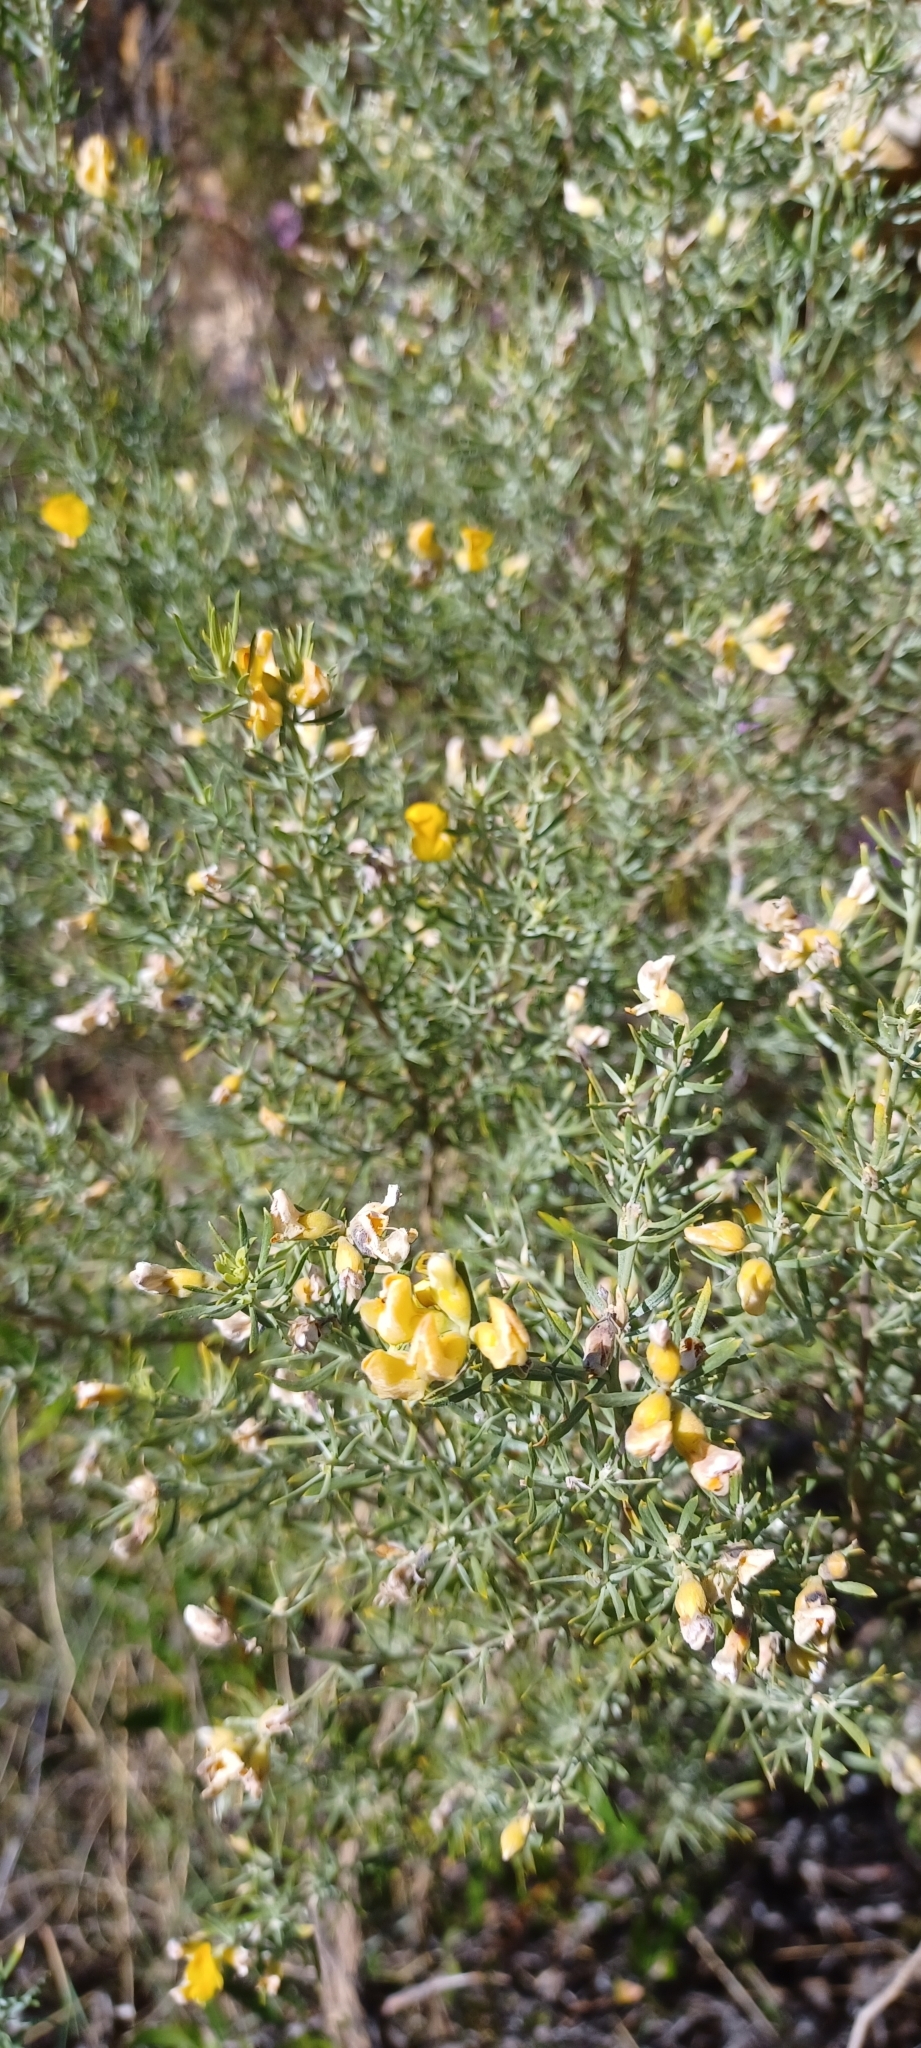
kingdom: Plantae
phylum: Tracheophyta
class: Magnoliopsida
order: Fabales
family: Fabaceae
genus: Aspalathus
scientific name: Aspalathus rugosa
